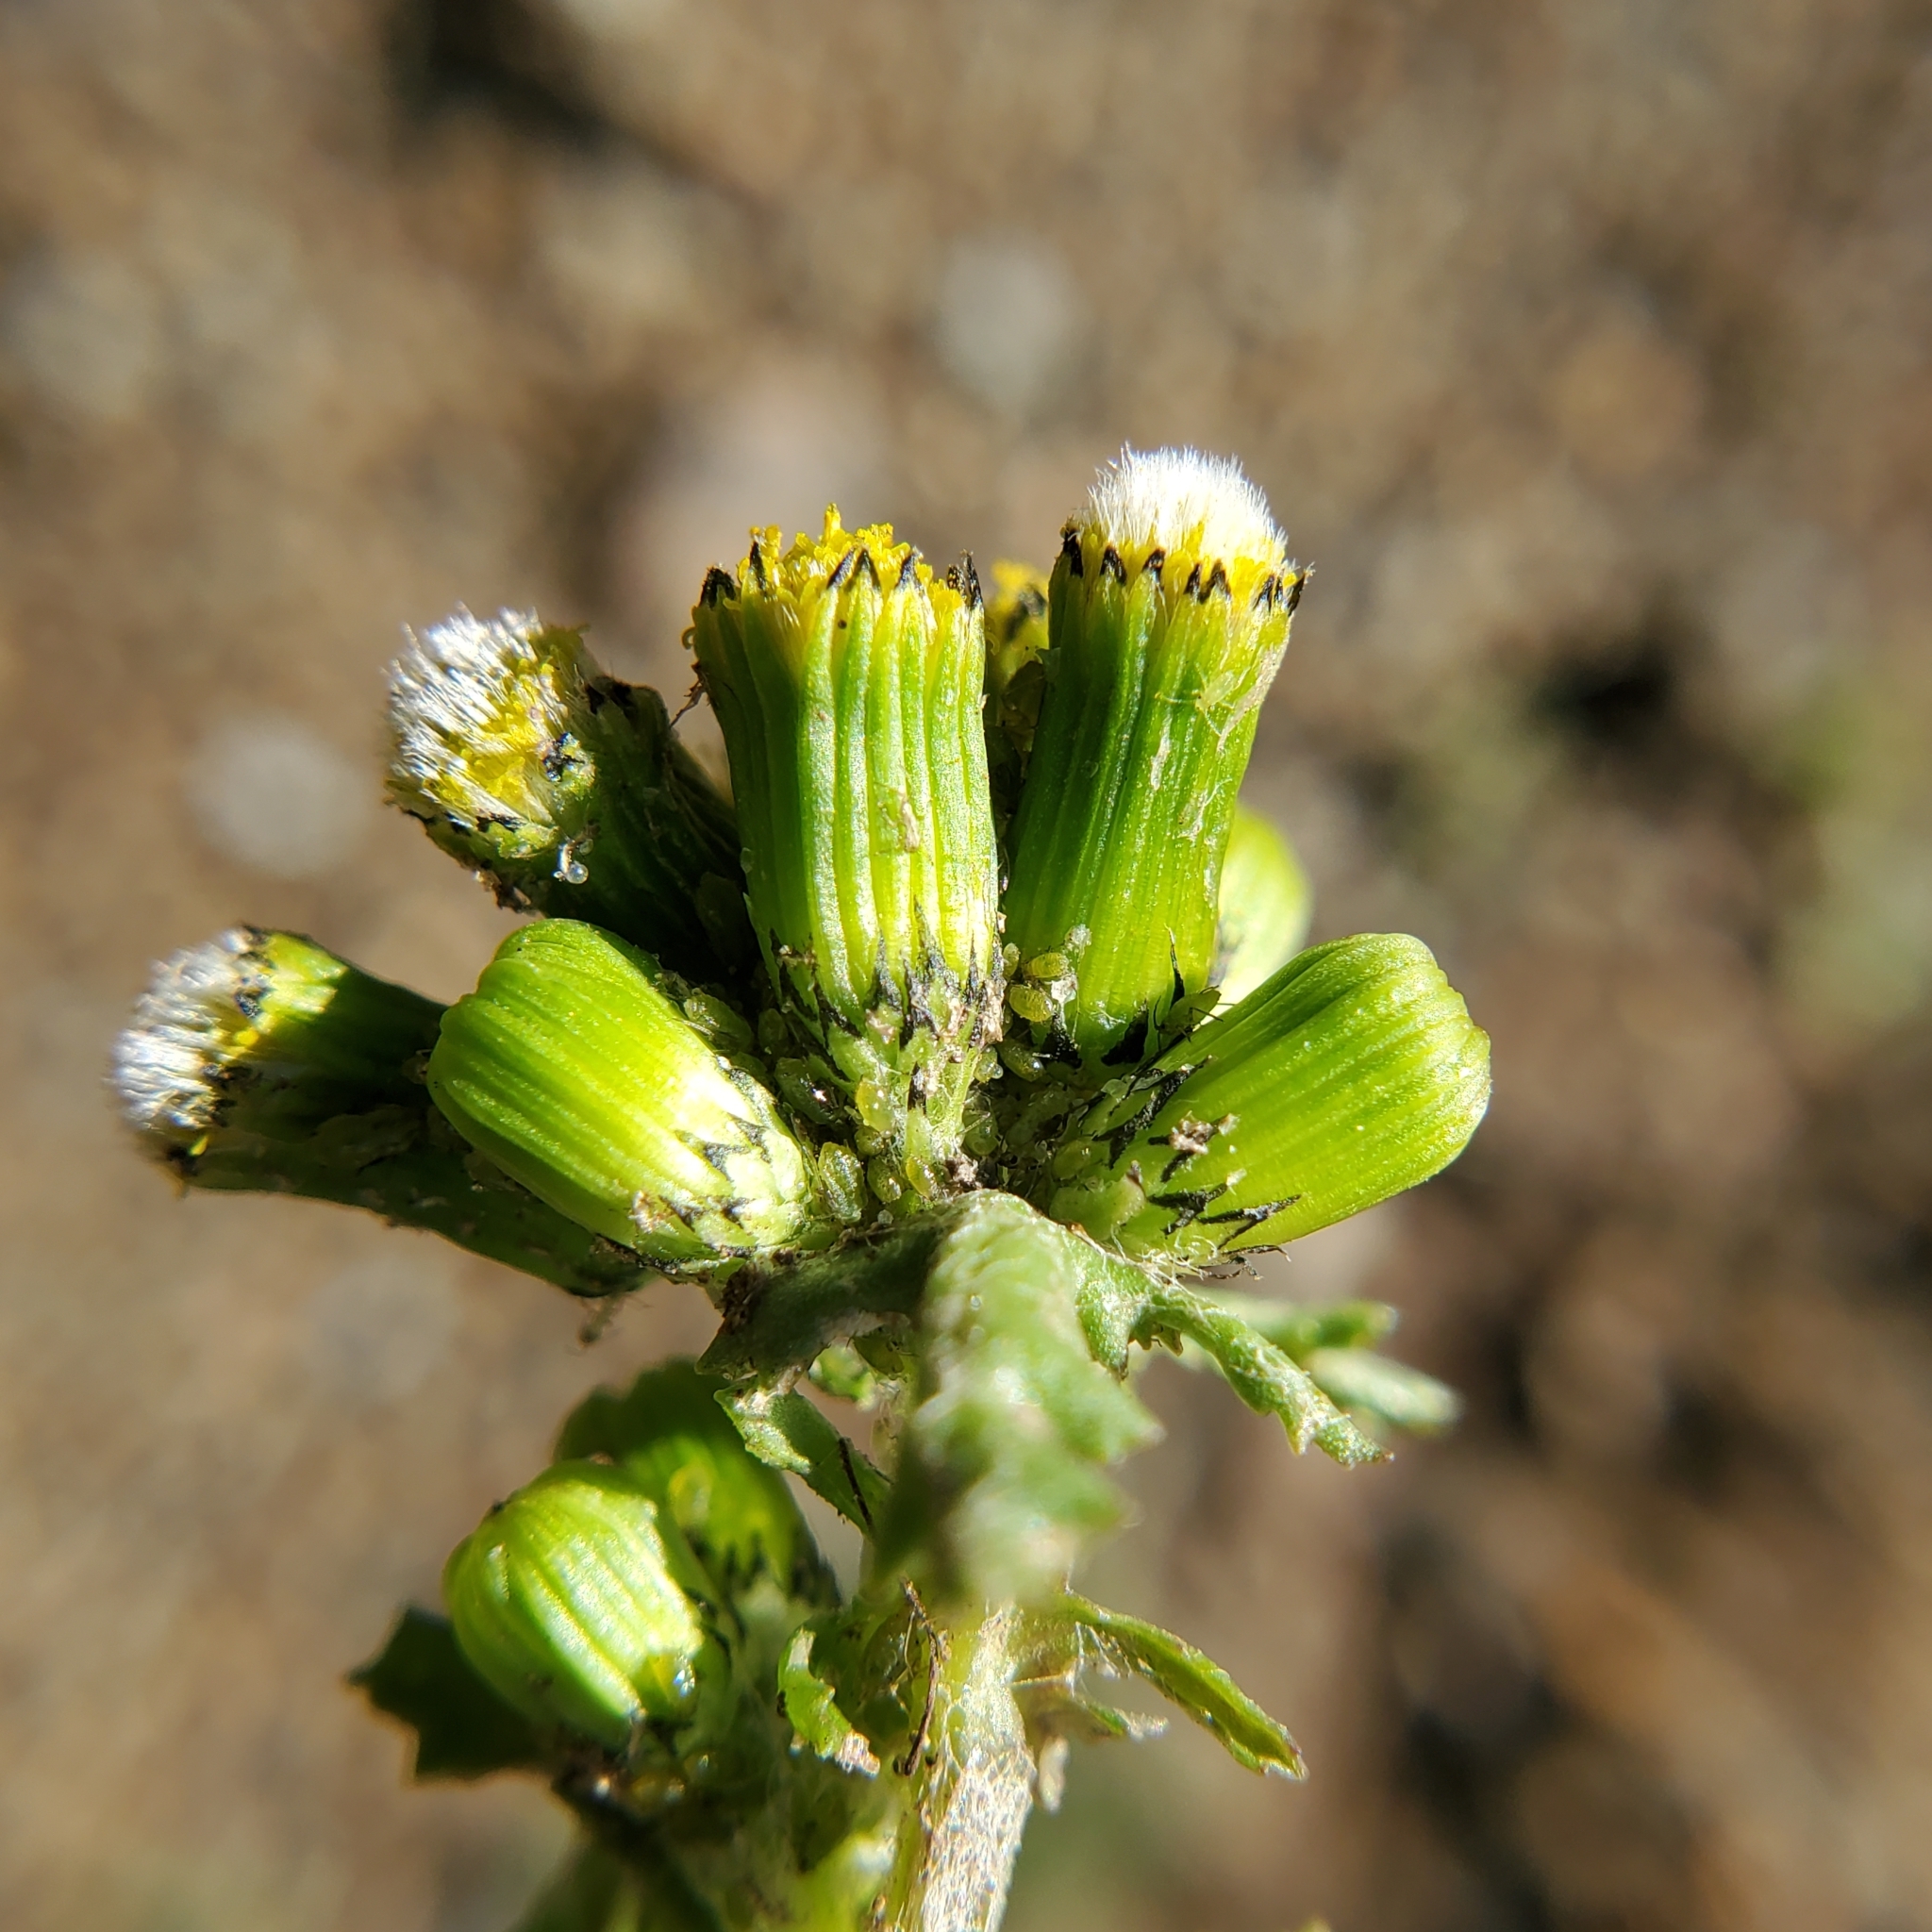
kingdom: Plantae
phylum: Tracheophyta
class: Magnoliopsida
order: Asterales
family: Asteraceae
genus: Senecio
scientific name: Senecio vulgaris
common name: Old-man-in-the-spring
